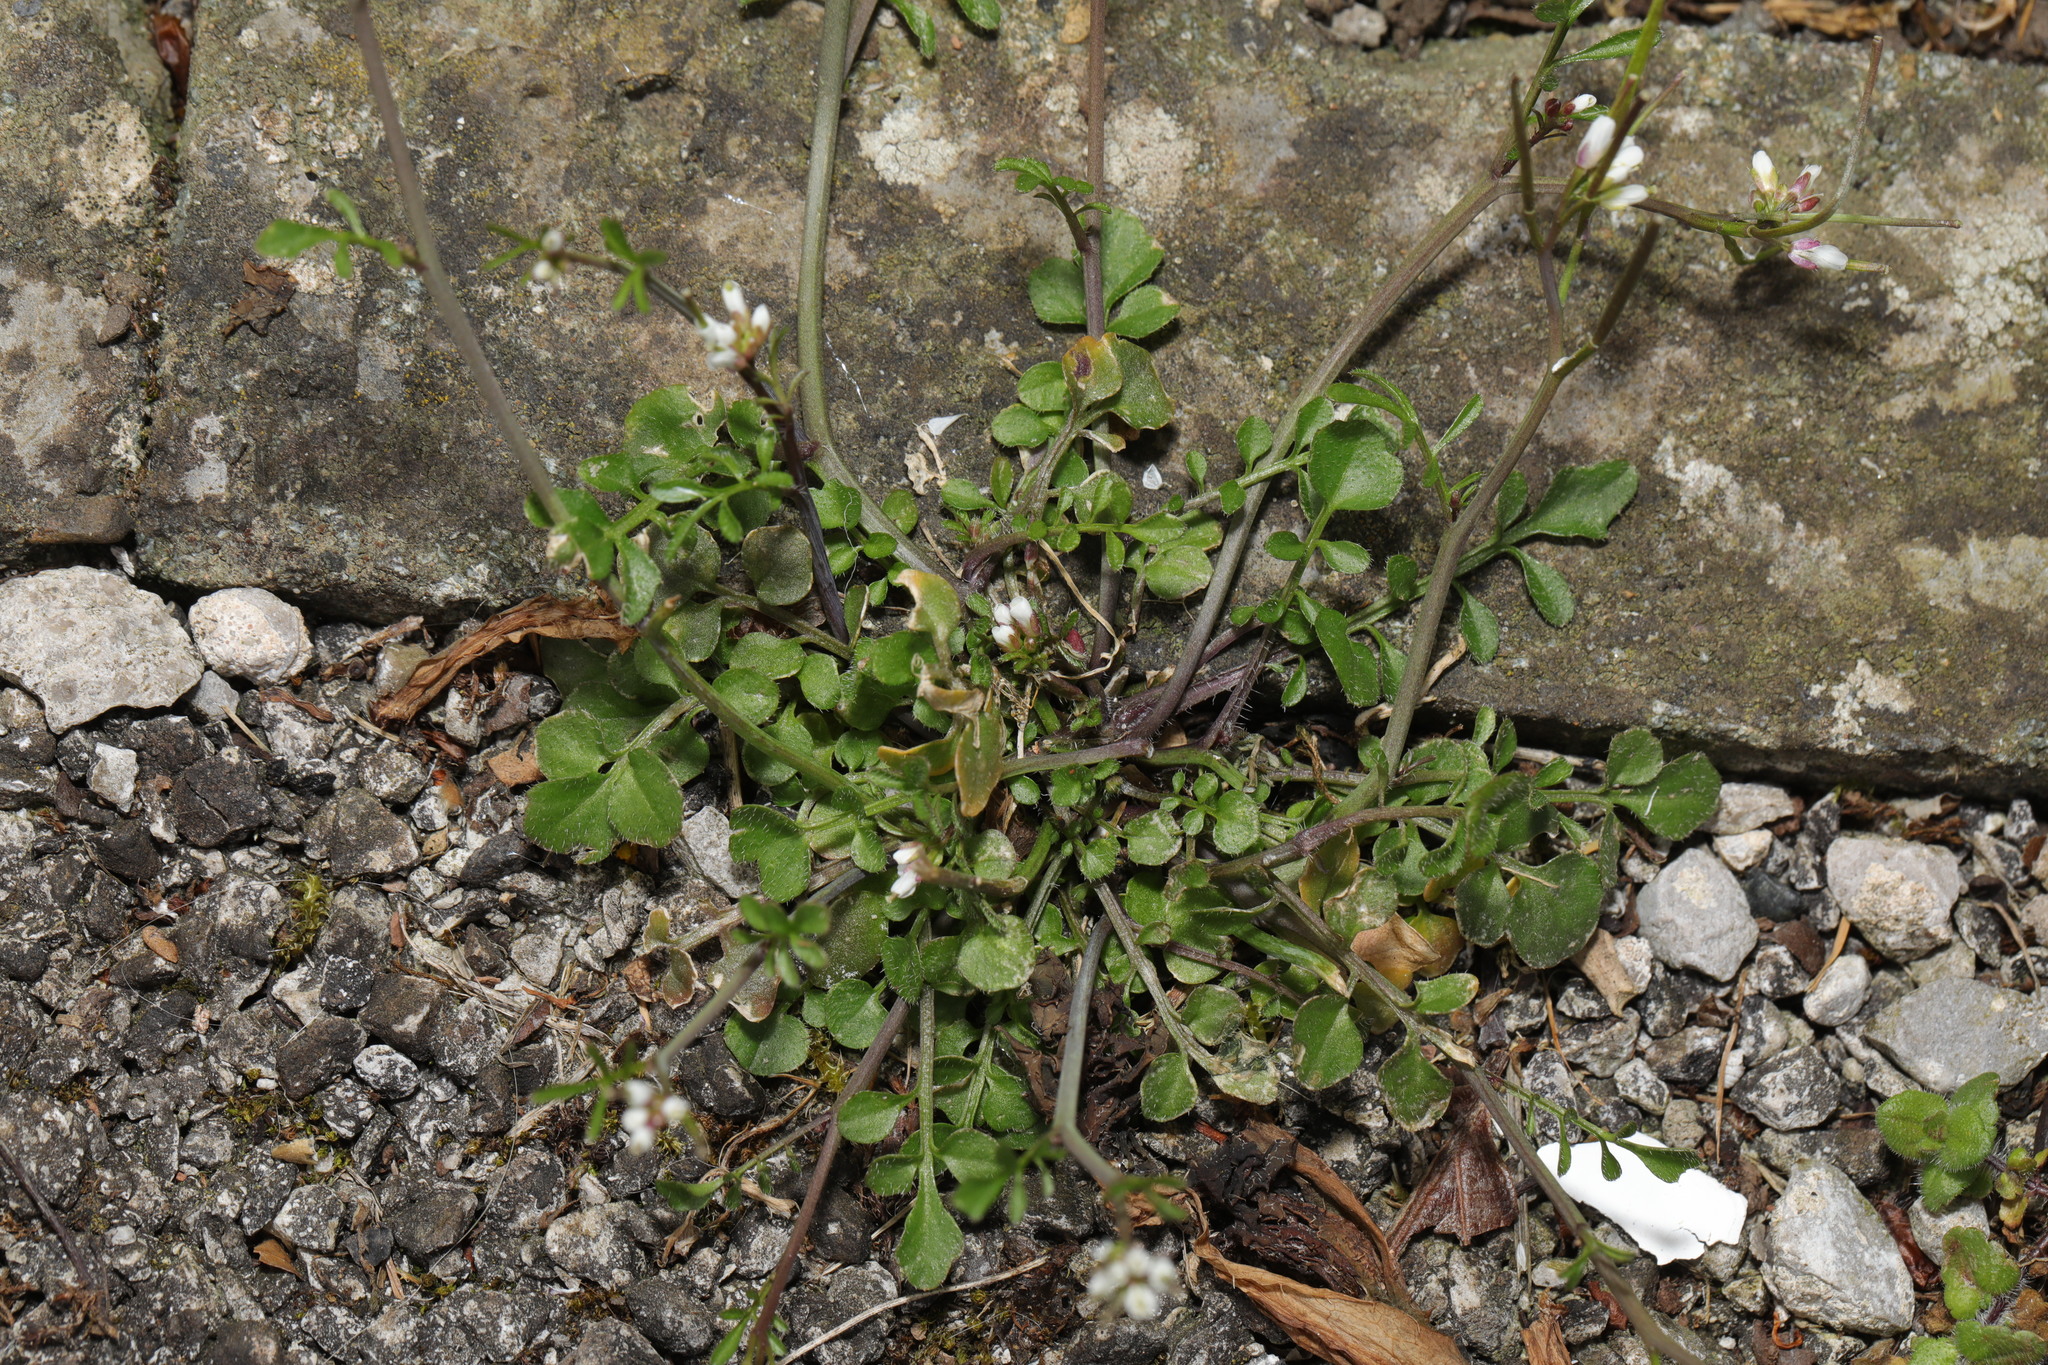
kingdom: Plantae
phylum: Tracheophyta
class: Magnoliopsida
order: Brassicales
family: Brassicaceae
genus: Cardamine
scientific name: Cardamine hirsuta
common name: Hairy bittercress
